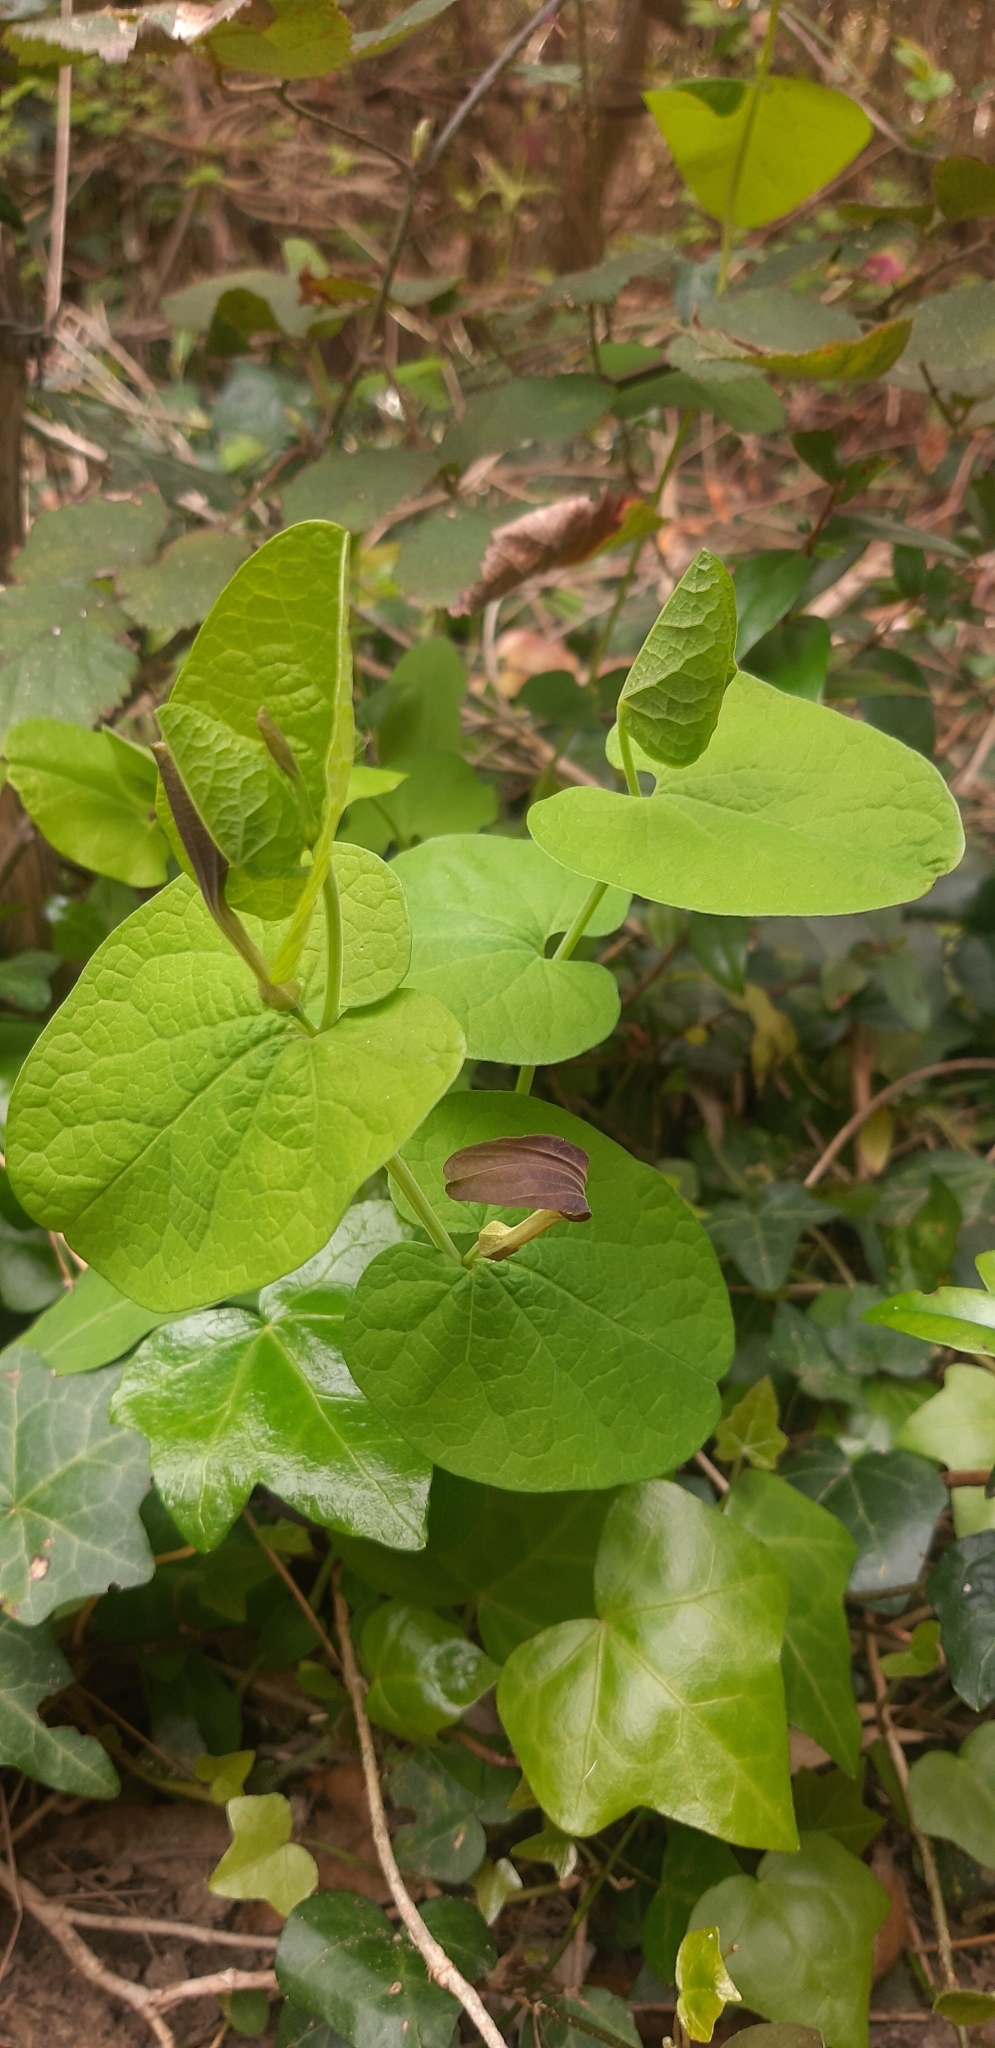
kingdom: Plantae
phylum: Tracheophyta
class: Magnoliopsida
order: Piperales
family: Aristolochiaceae
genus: Aristolochia
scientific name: Aristolochia rotunda
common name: Smearwort
